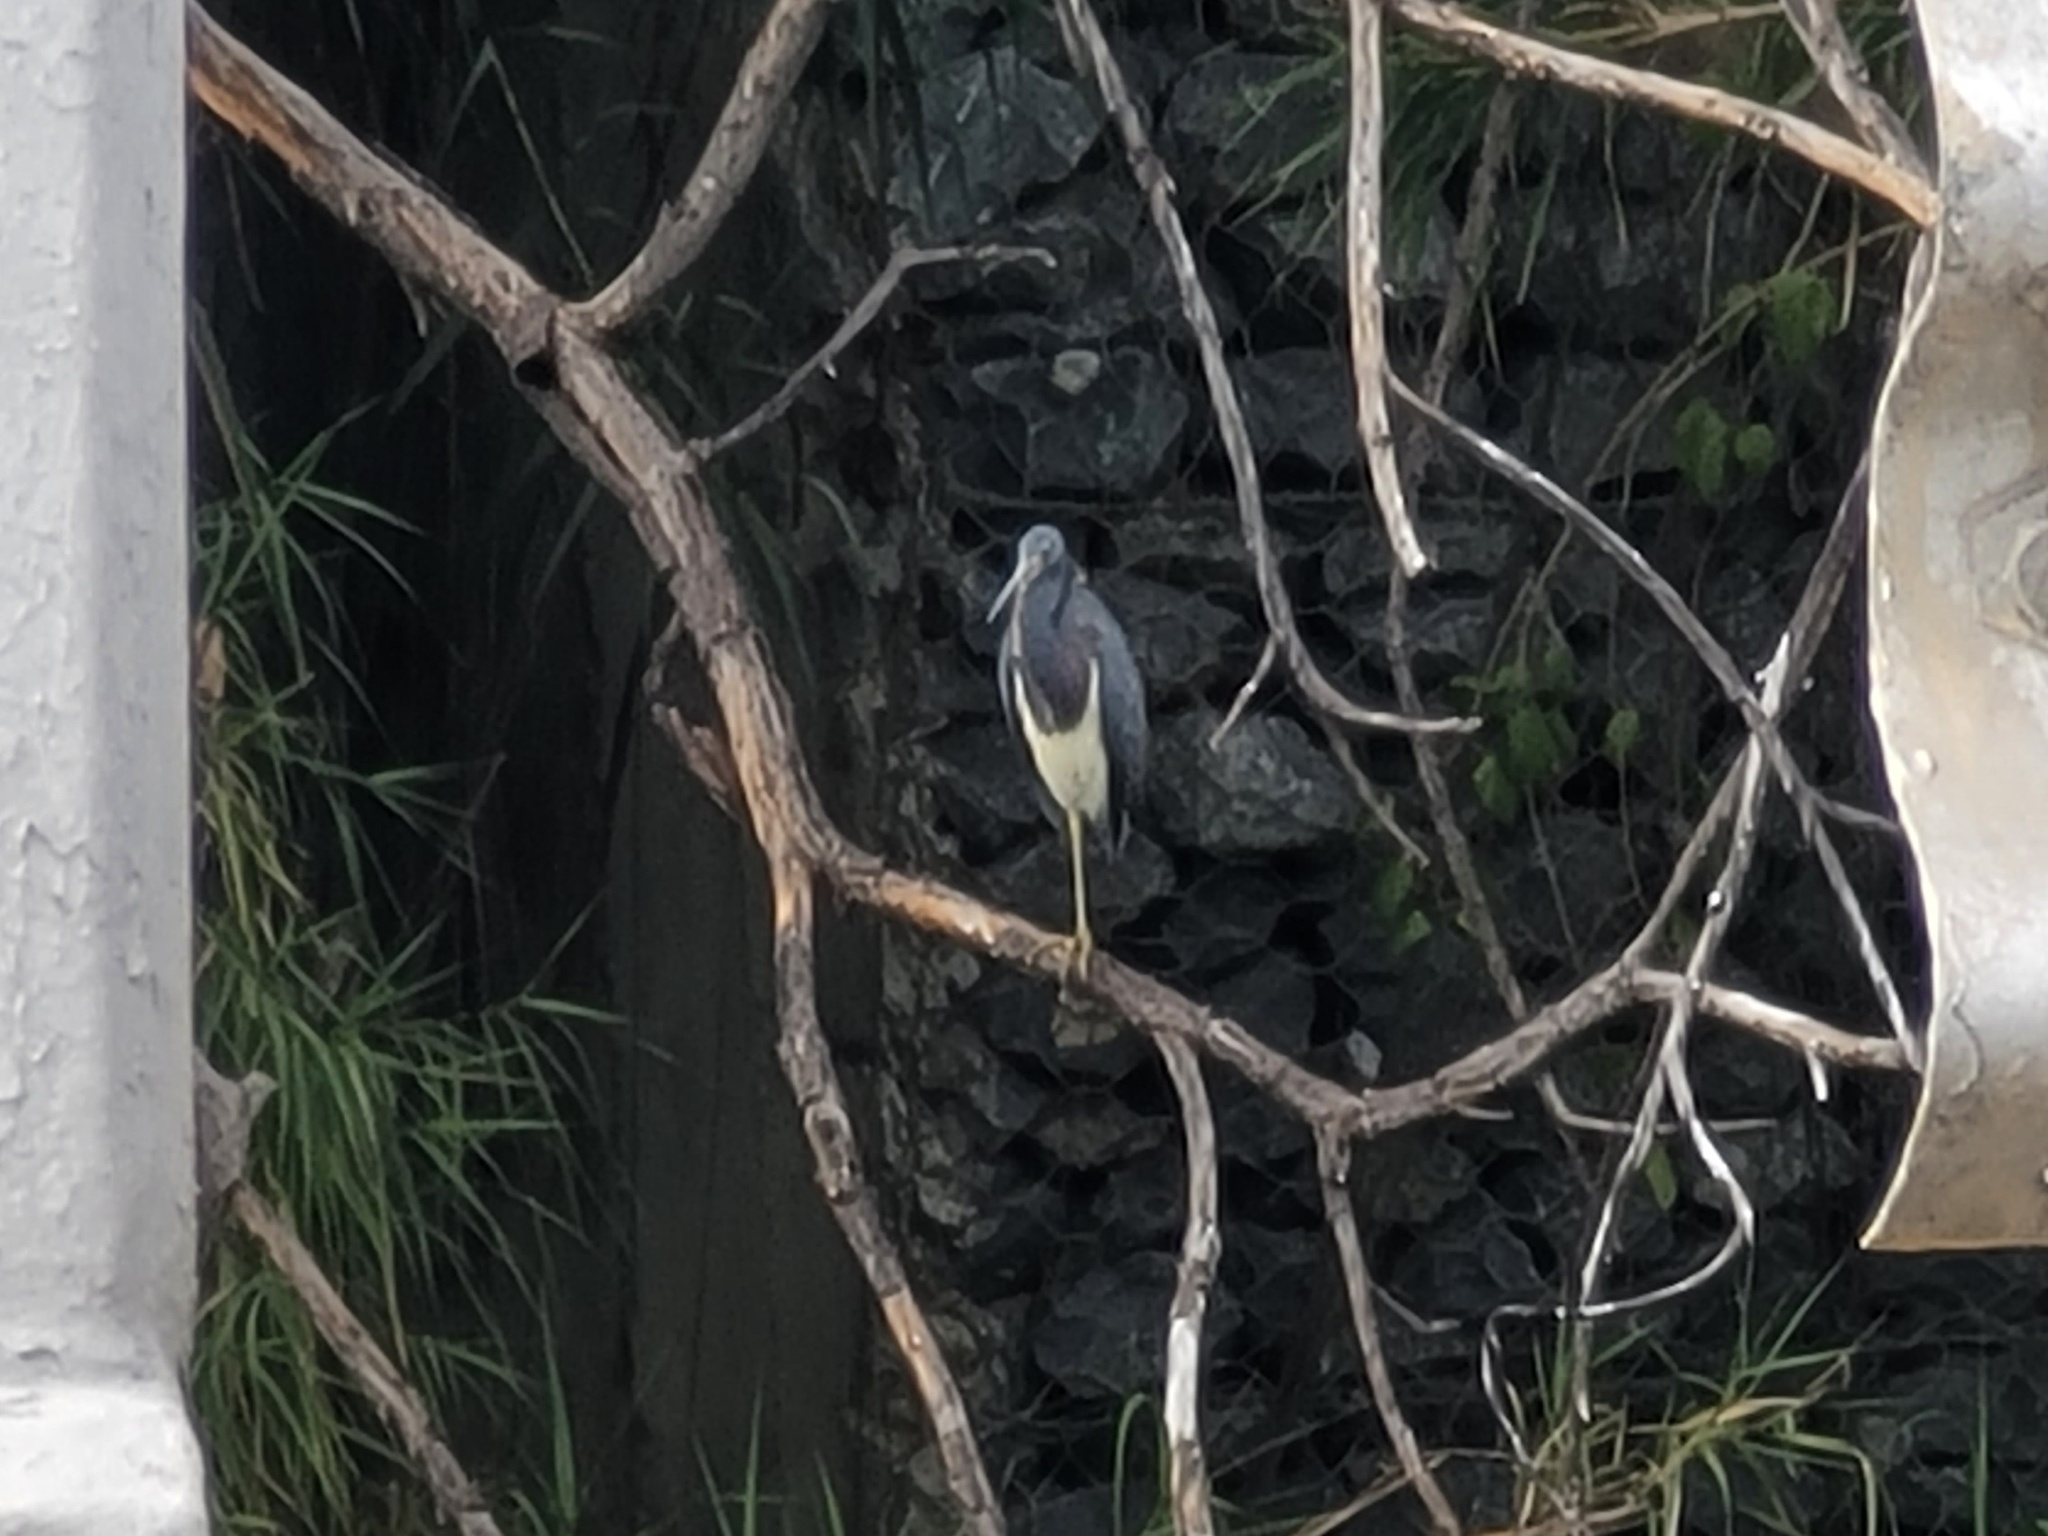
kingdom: Animalia
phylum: Chordata
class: Aves
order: Pelecaniformes
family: Ardeidae
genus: Egretta
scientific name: Egretta tricolor
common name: Tricolored heron
